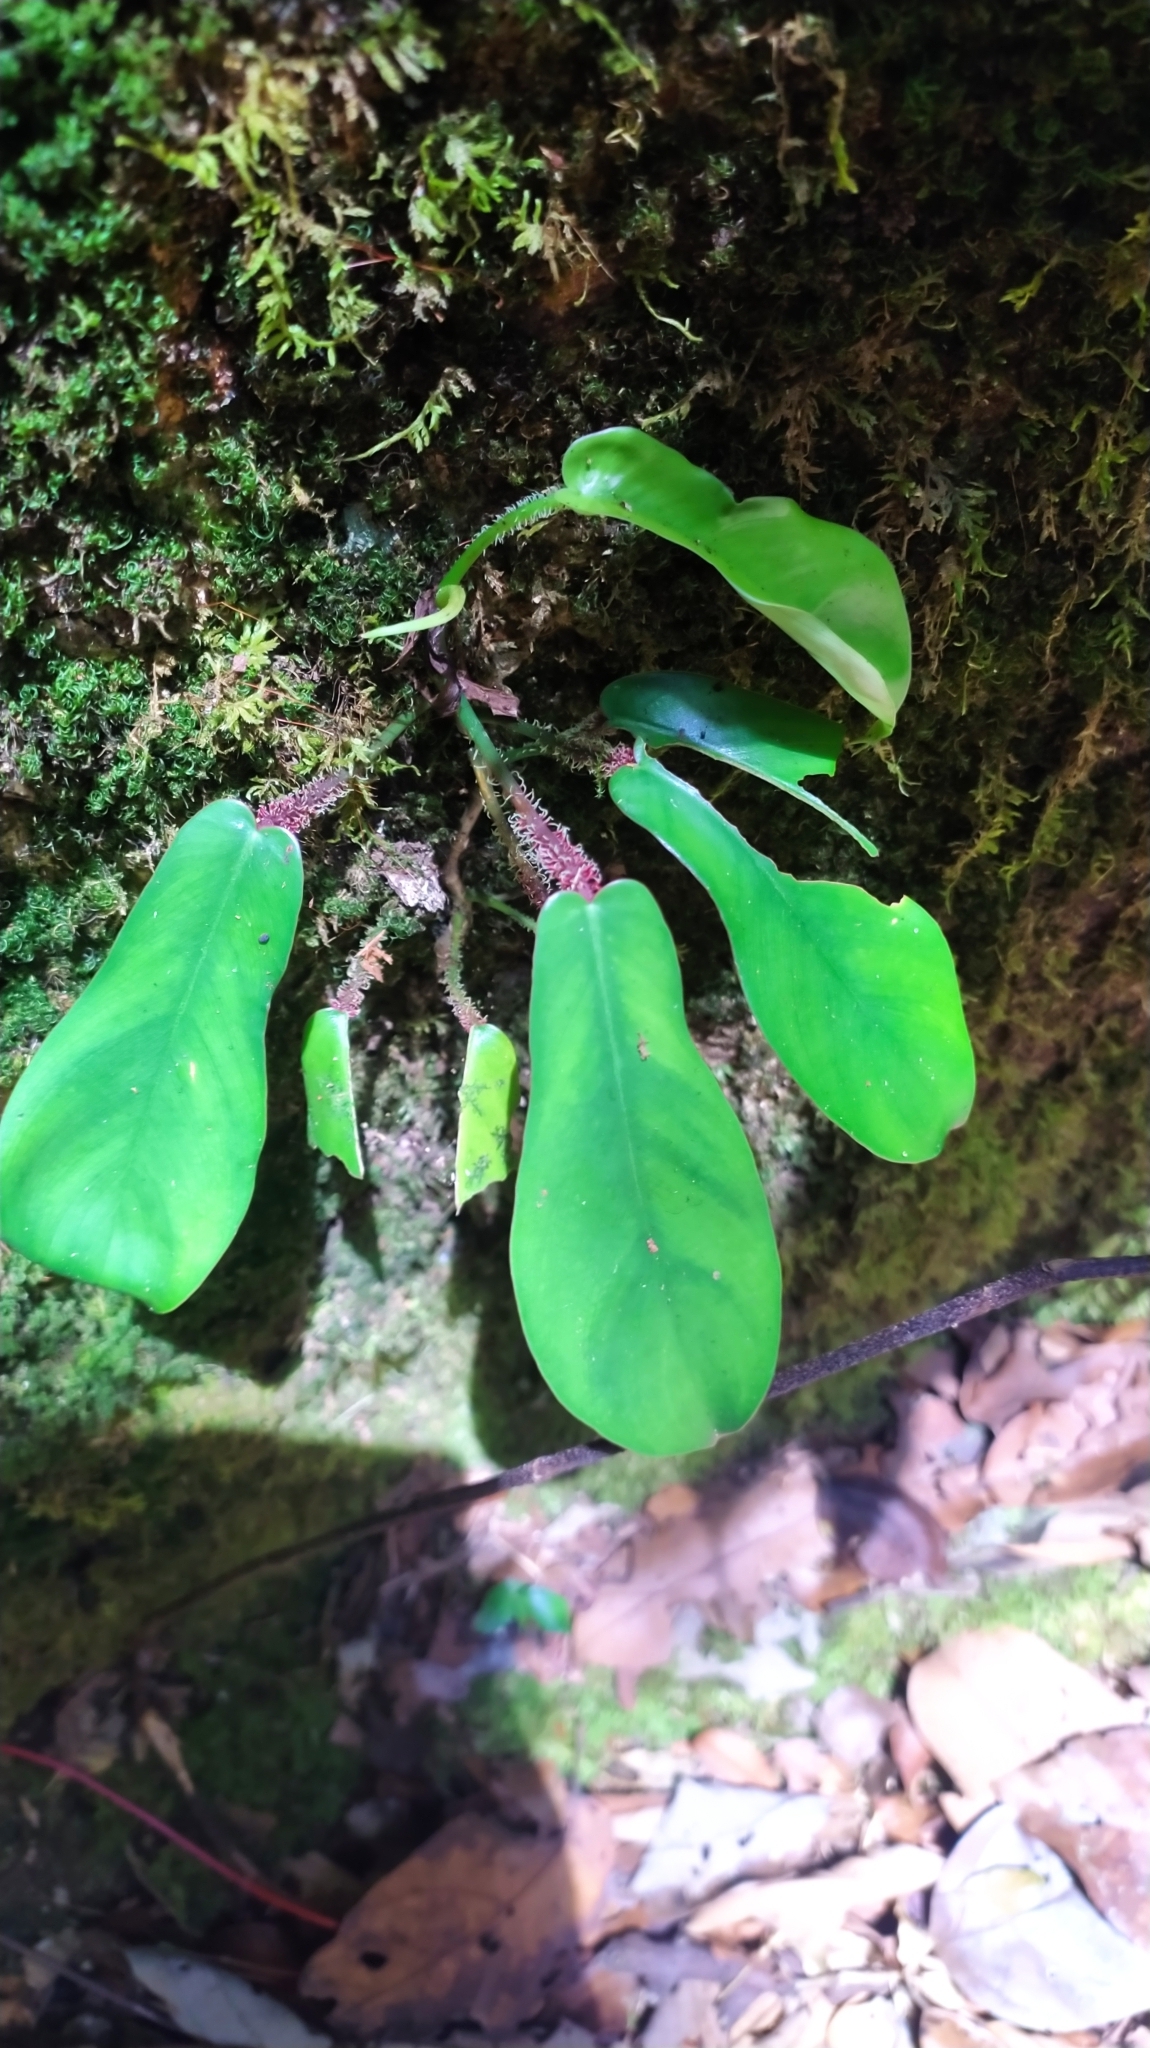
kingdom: Plantae
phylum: Tracheophyta
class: Liliopsida
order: Alismatales
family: Araceae
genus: Philodendron
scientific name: Philodendron squamiferum
